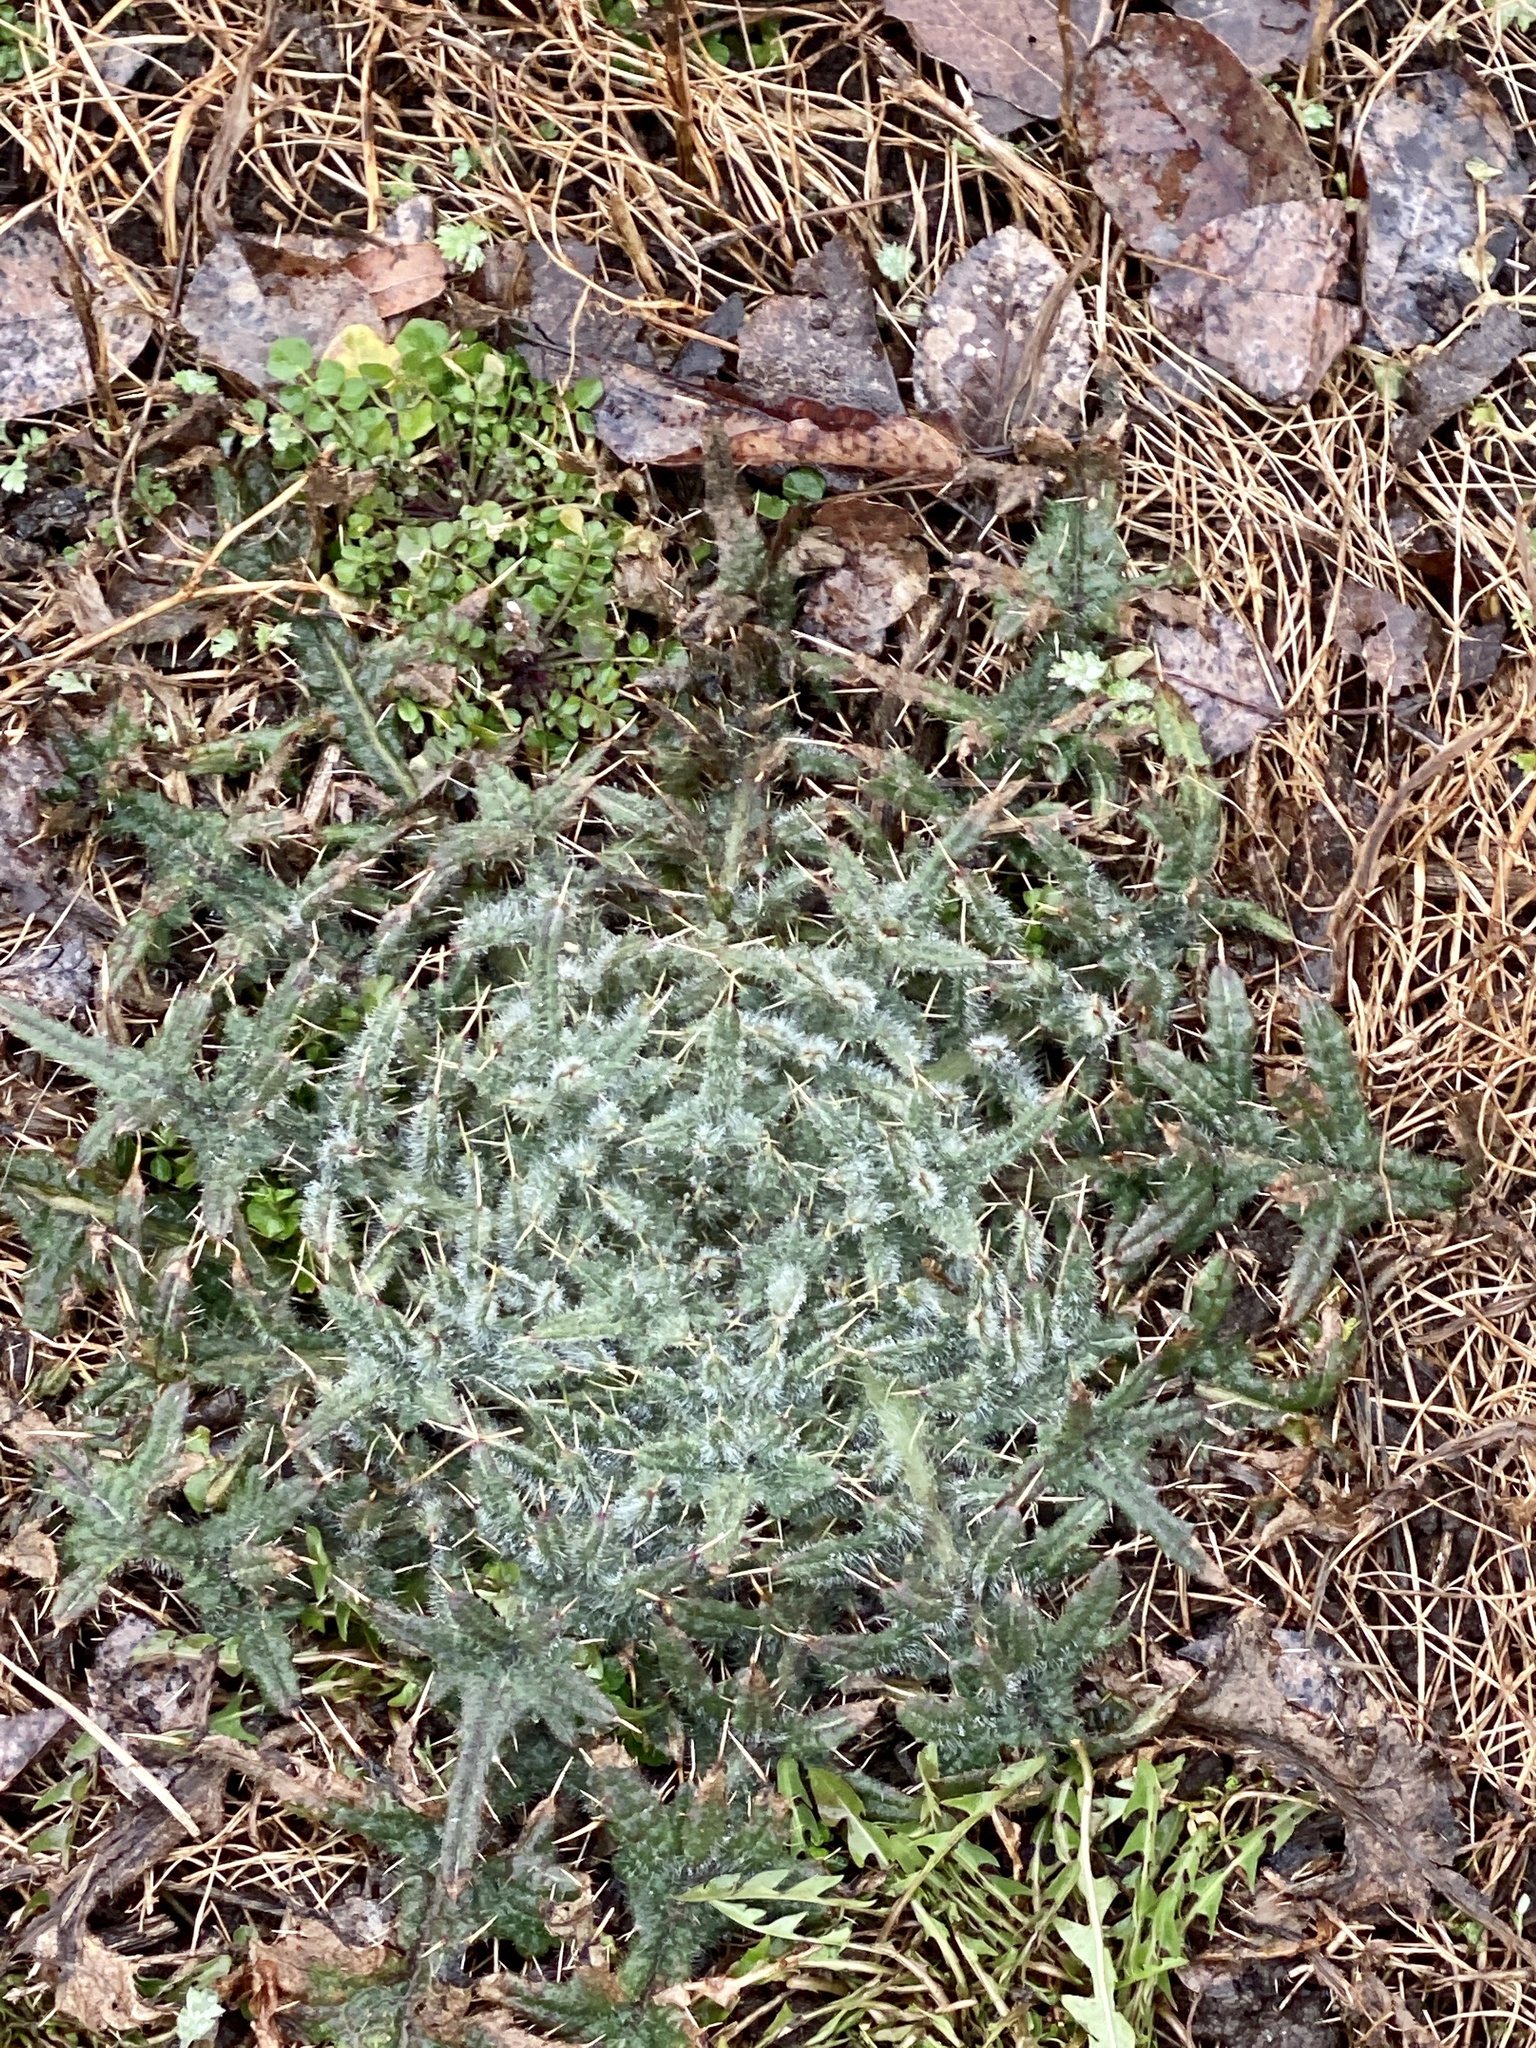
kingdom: Plantae
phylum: Tracheophyta
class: Magnoliopsida
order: Asterales
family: Asteraceae
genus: Cirsium
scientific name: Cirsium vulgare
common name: Bull thistle
